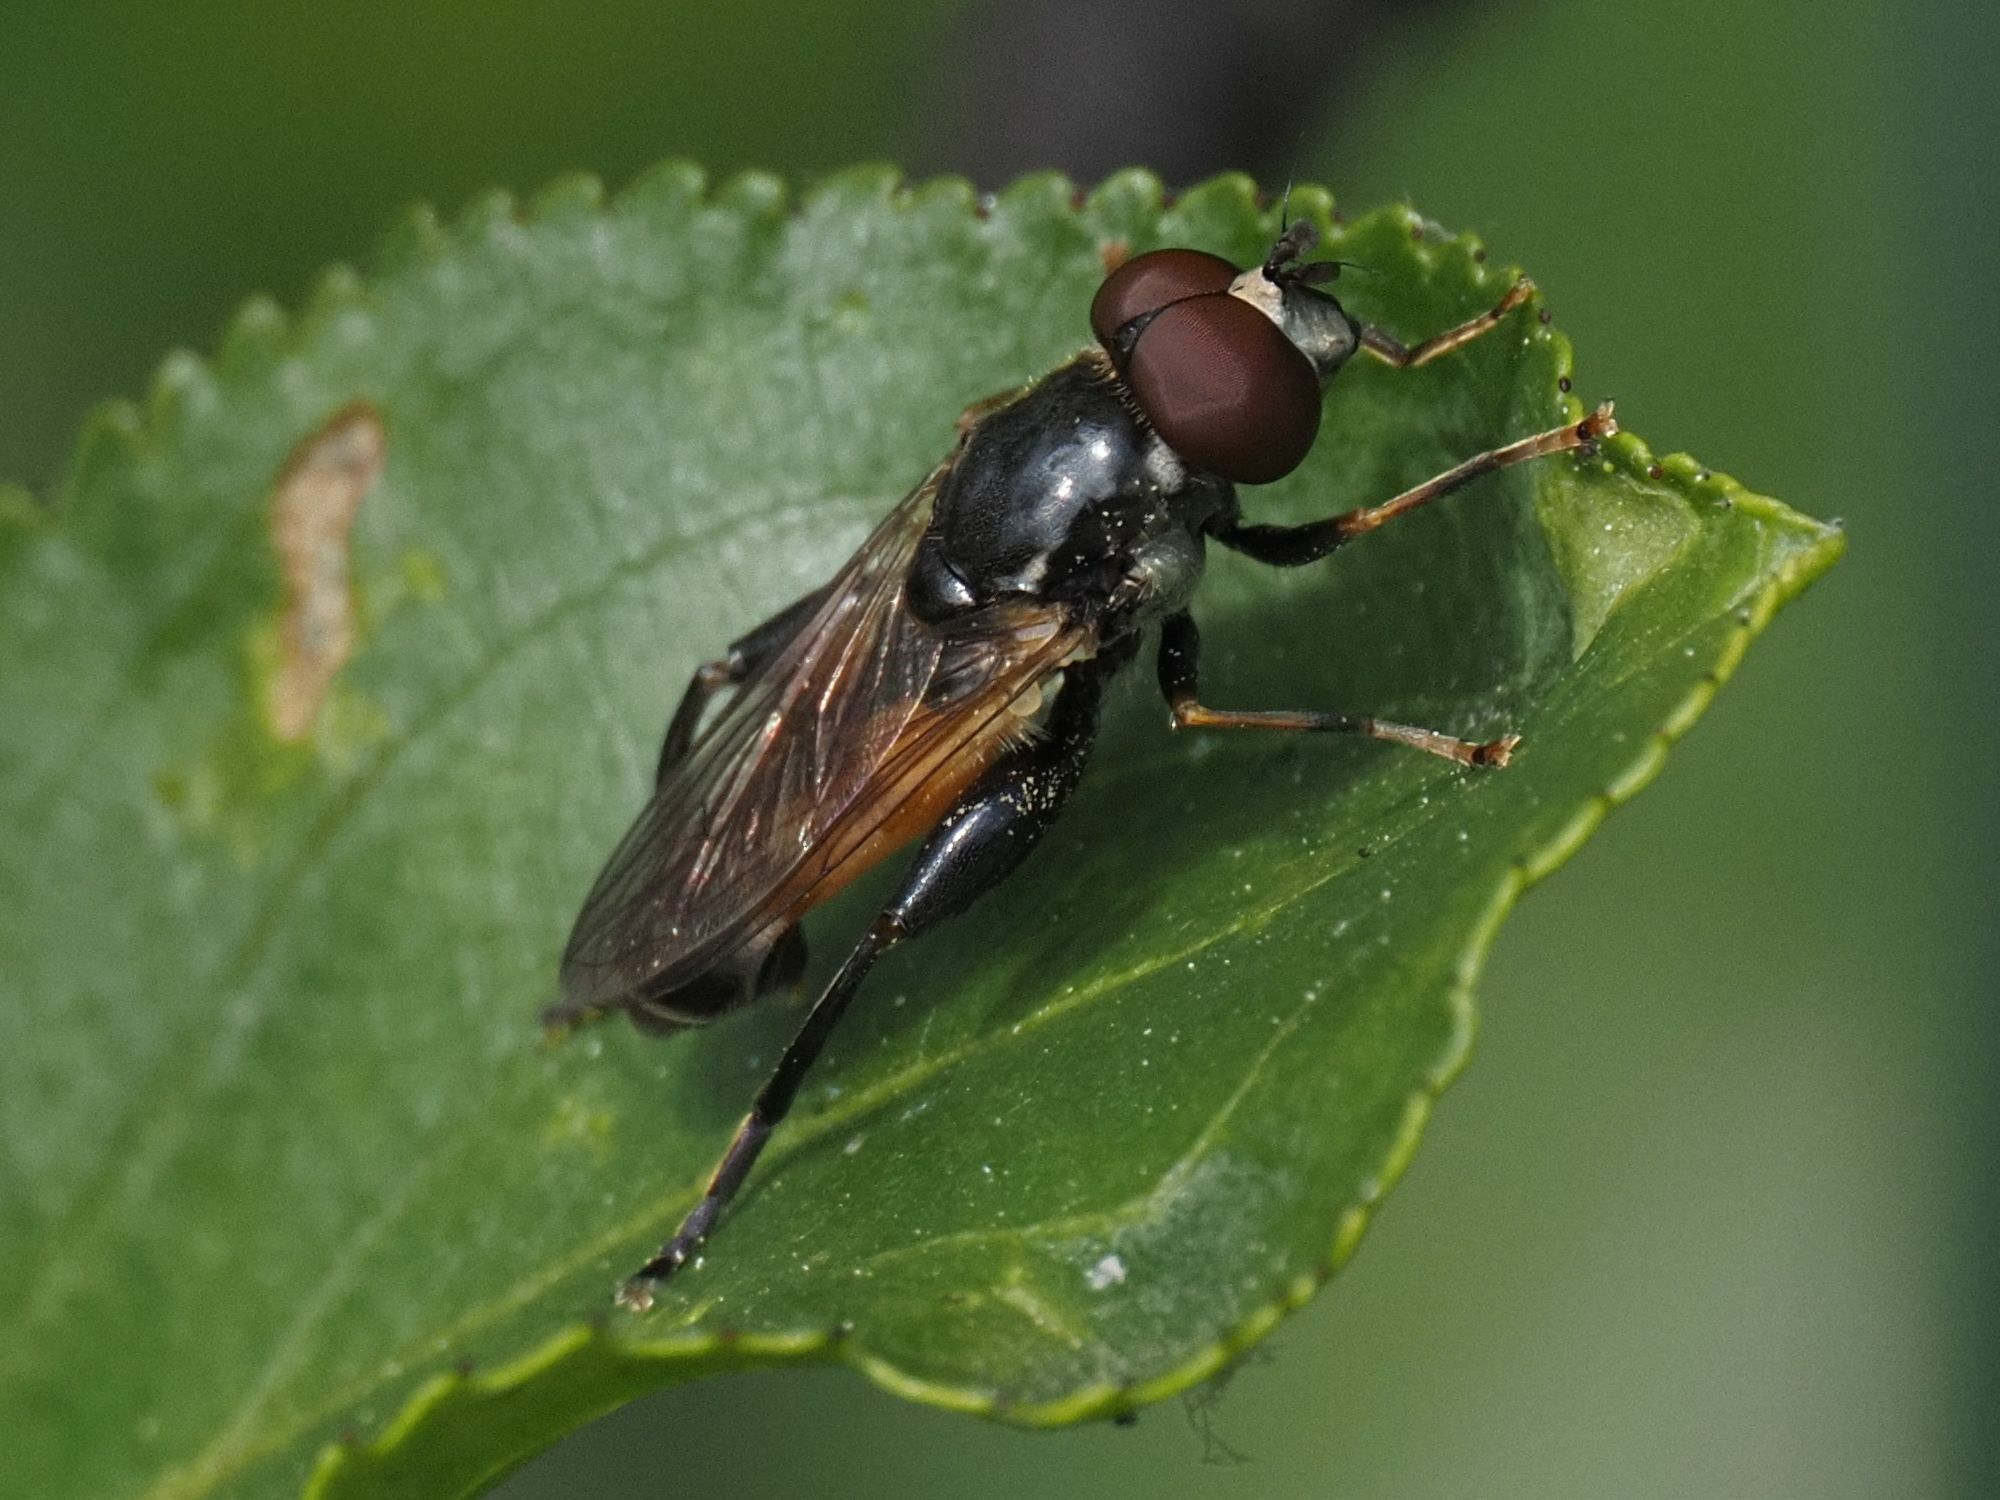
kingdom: Animalia
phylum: Arthropoda
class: Insecta
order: Diptera
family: Syrphidae
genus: Tropidia
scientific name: Tropidia scita
